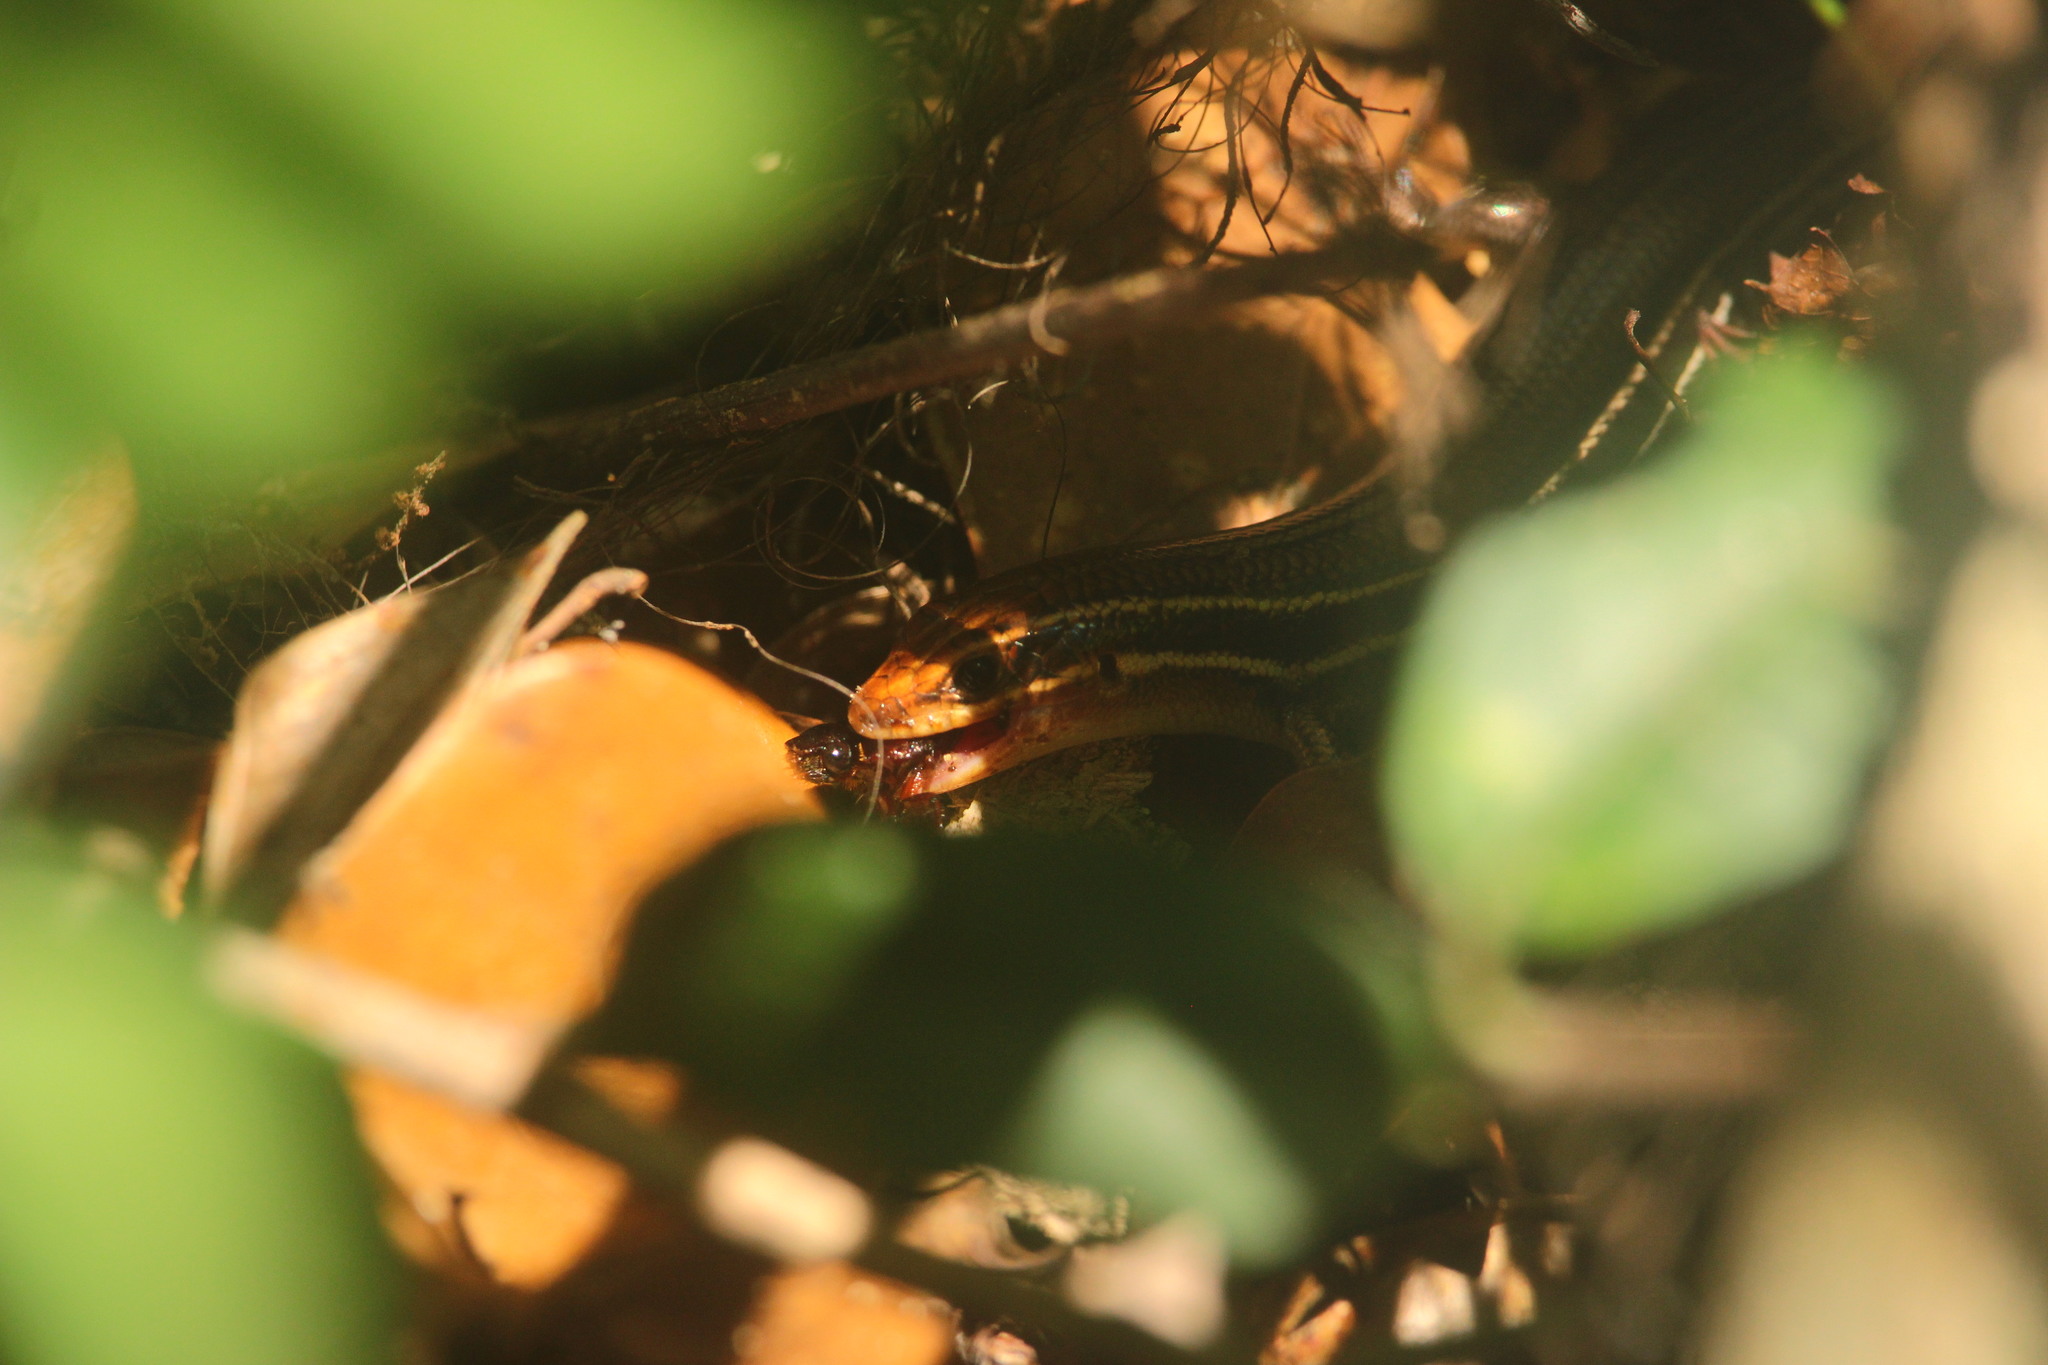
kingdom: Animalia
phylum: Chordata
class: Squamata
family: Scincidae
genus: Plestiodon
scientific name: Plestiodon inexpectatus
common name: Southeastern five-lined skink
